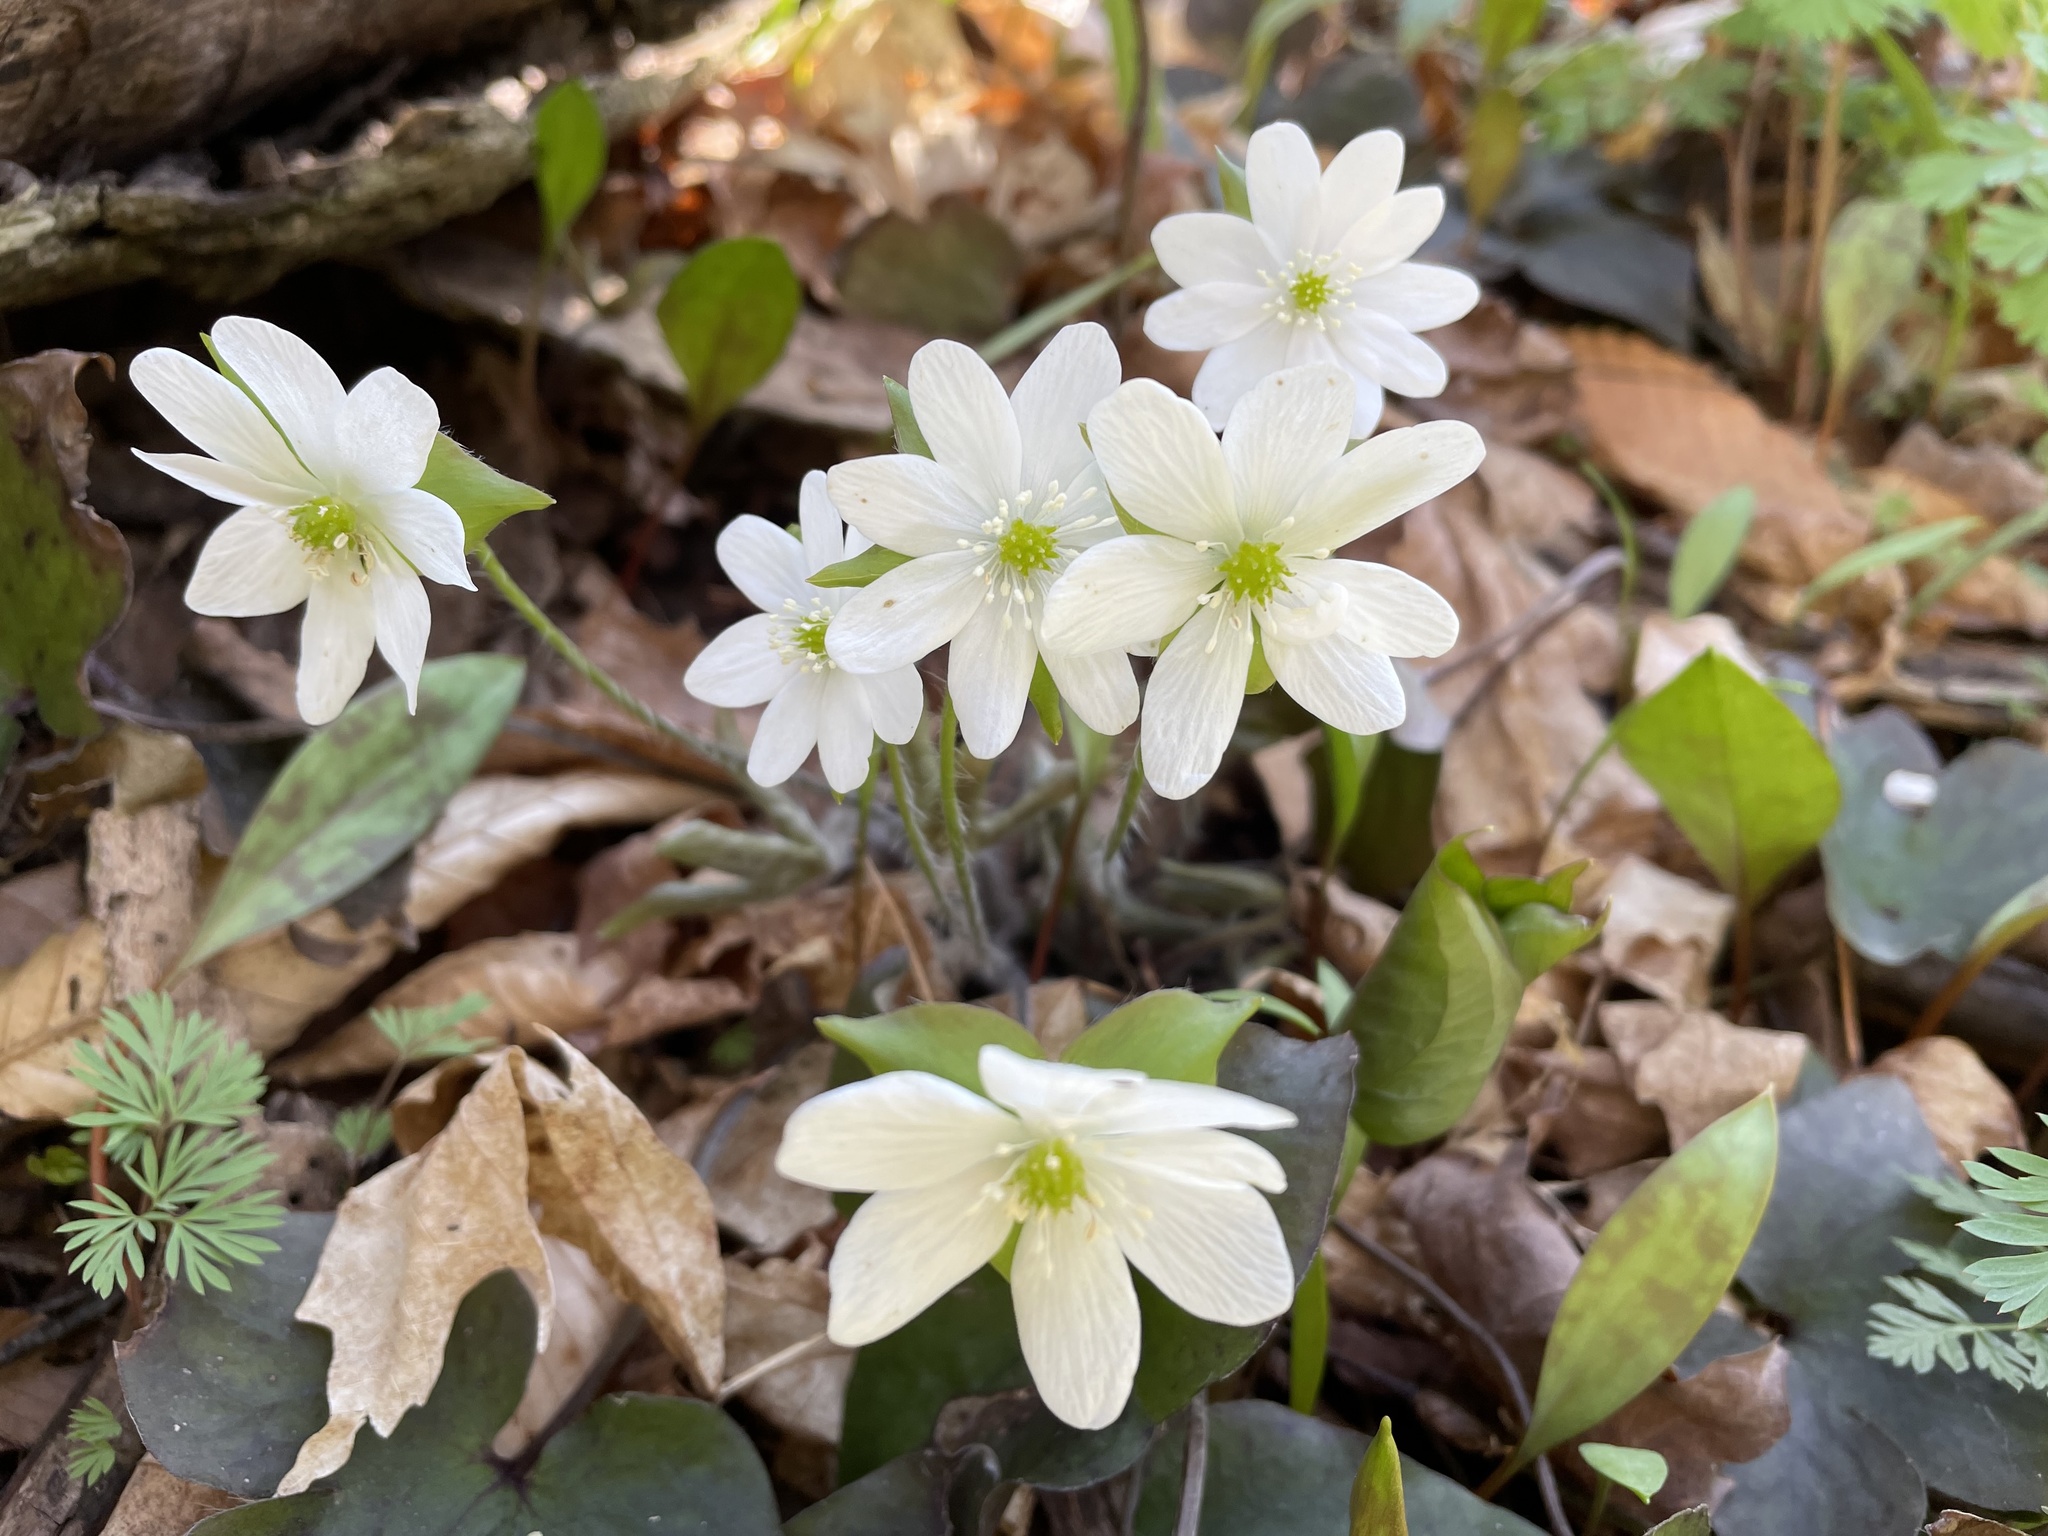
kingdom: Plantae
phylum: Tracheophyta
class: Magnoliopsida
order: Ranunculales
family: Ranunculaceae
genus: Hepatica
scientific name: Hepatica acutiloba
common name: Sharp-lobed hepatica
